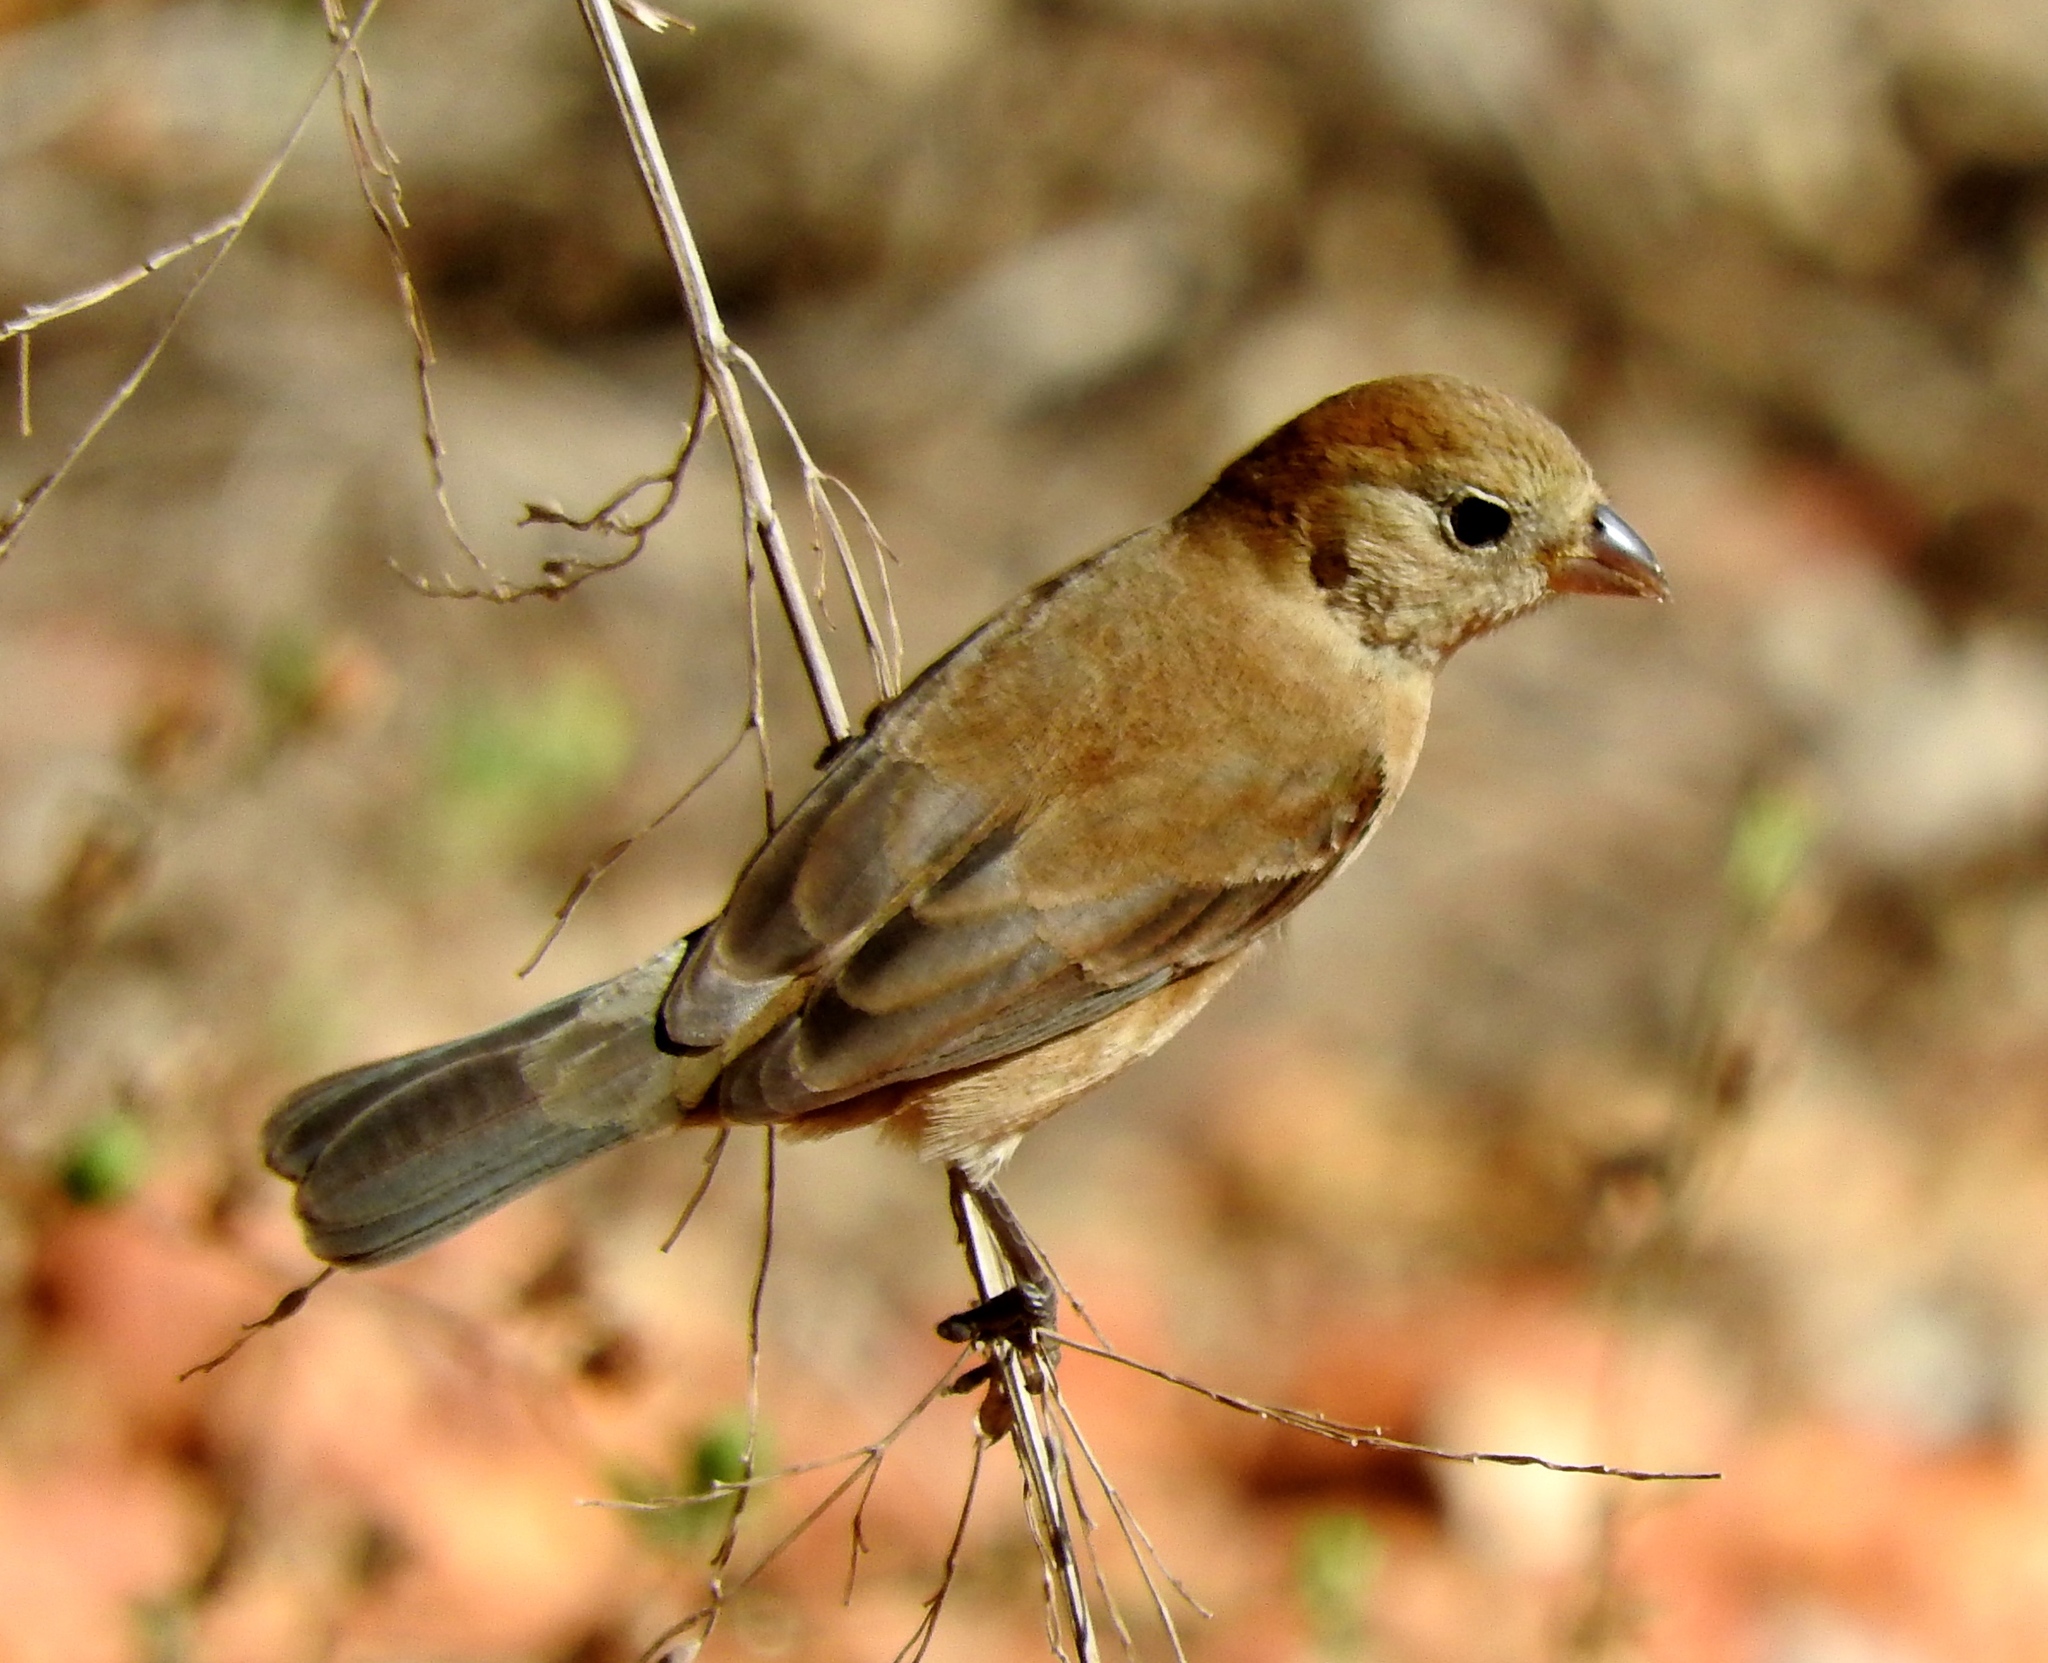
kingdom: Animalia
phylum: Chordata
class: Aves
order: Passeriformes
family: Thraupidae
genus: Sporophila
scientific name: Sporophila torqueola
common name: White-collared seedeater
